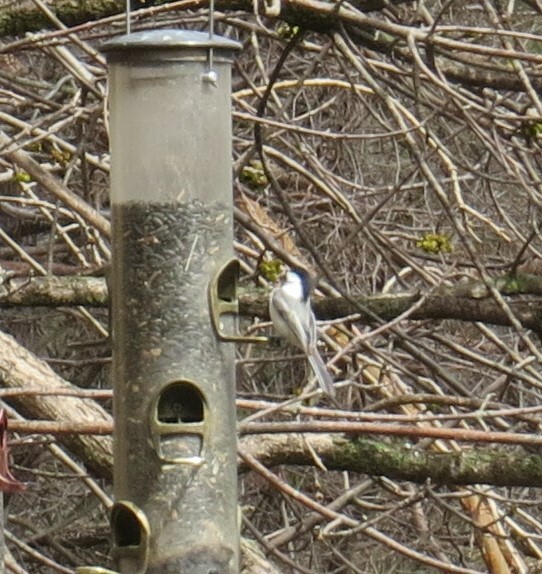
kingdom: Animalia
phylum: Chordata
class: Aves
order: Passeriformes
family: Paridae
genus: Poecile
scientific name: Poecile atricapillus
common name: Black-capped chickadee
